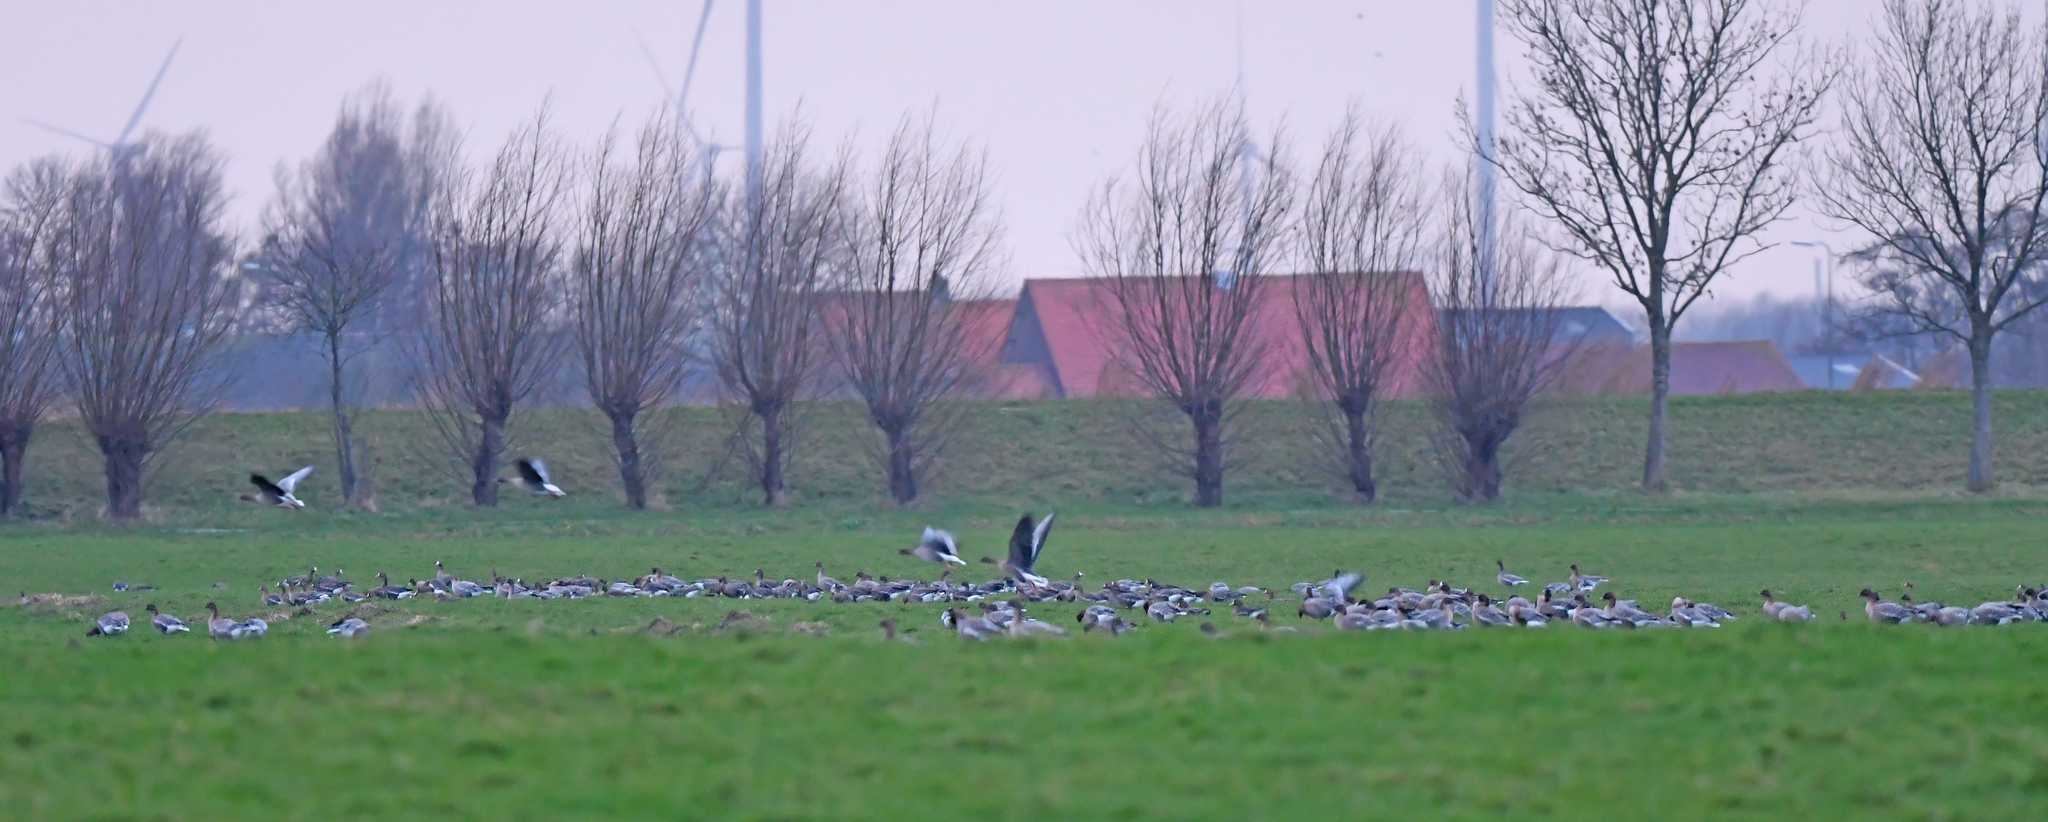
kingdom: Animalia
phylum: Chordata
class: Aves
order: Anseriformes
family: Anatidae
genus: Anser
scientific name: Anser brachyrhynchus
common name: Pink-footed goose
